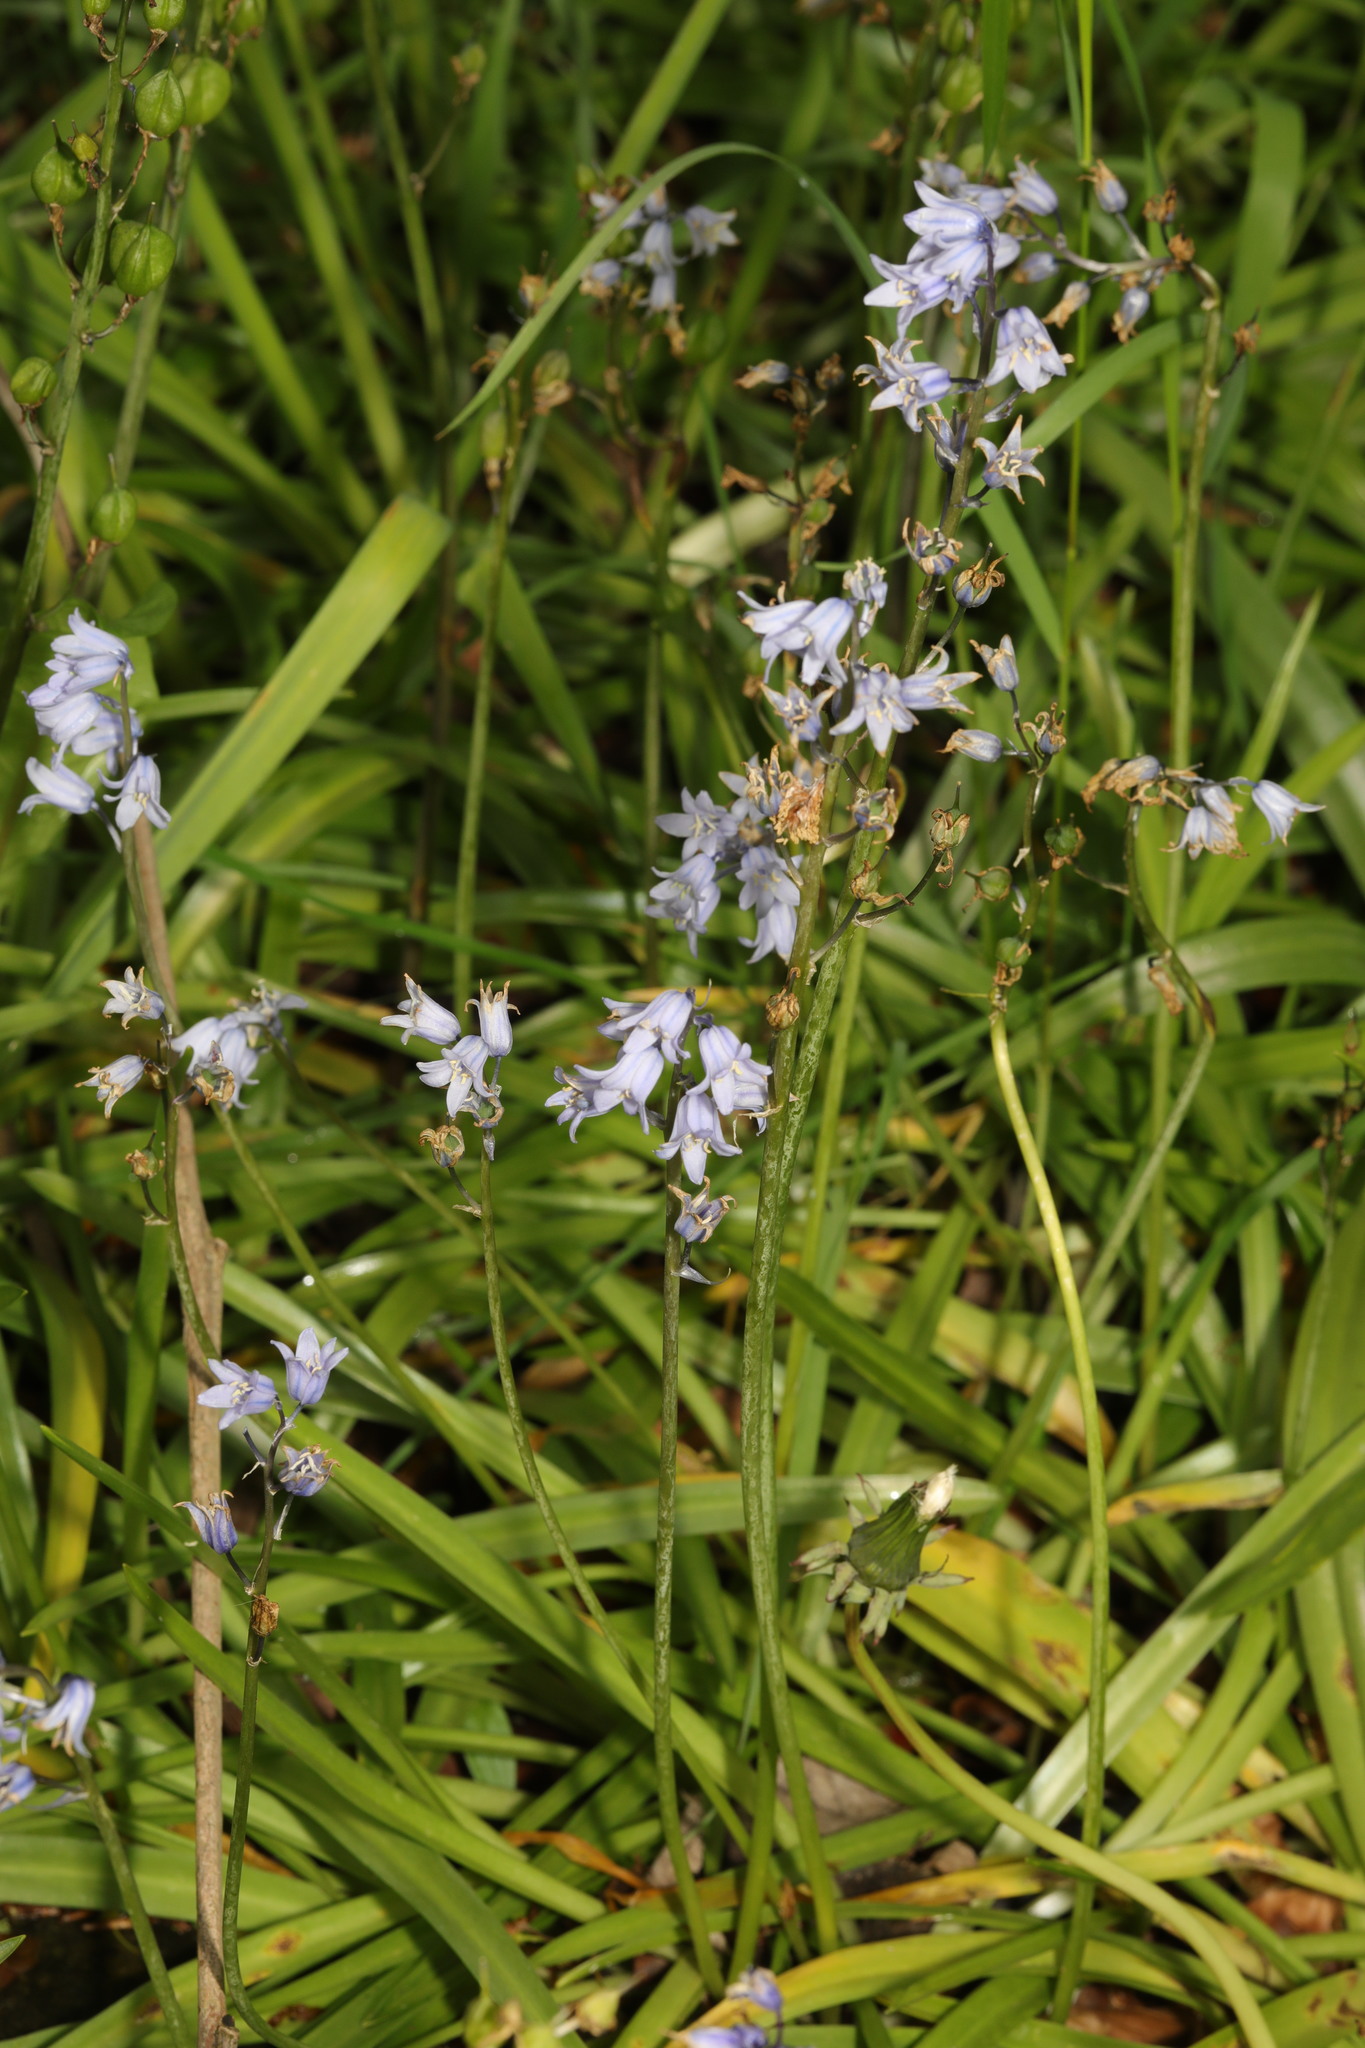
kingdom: Plantae
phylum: Tracheophyta
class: Liliopsida
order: Asparagales
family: Asparagaceae
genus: Hyacinthoides
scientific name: Hyacinthoides hispanica
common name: Spanish bluebell
